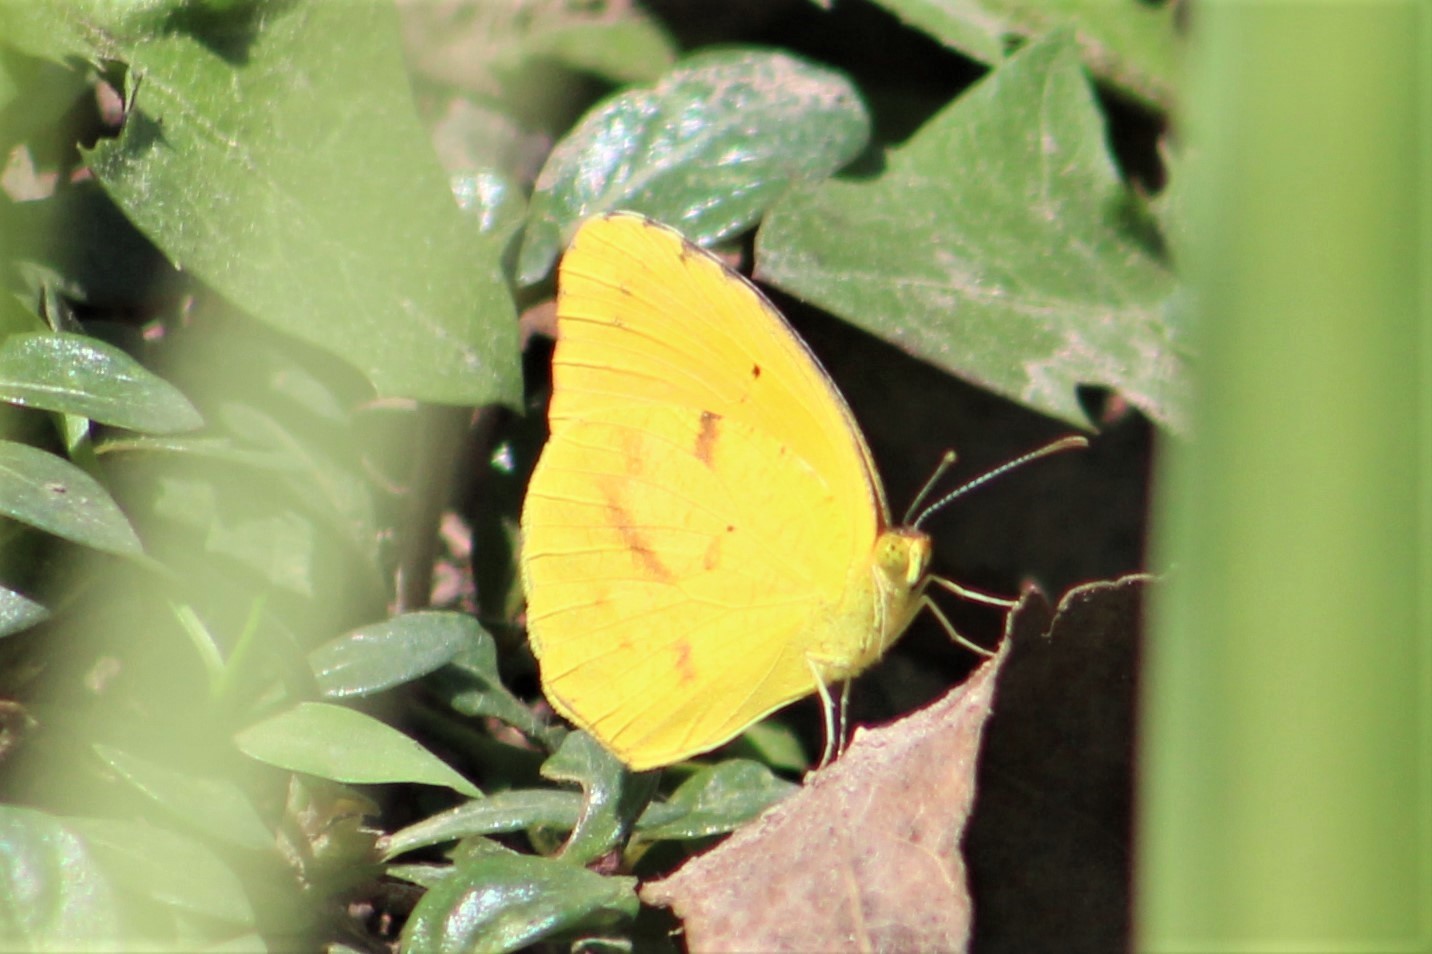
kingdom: Animalia
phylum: Arthropoda
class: Insecta
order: Lepidoptera
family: Pieridae
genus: Abaeis
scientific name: Abaeis nicippe
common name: Sleepy orange
